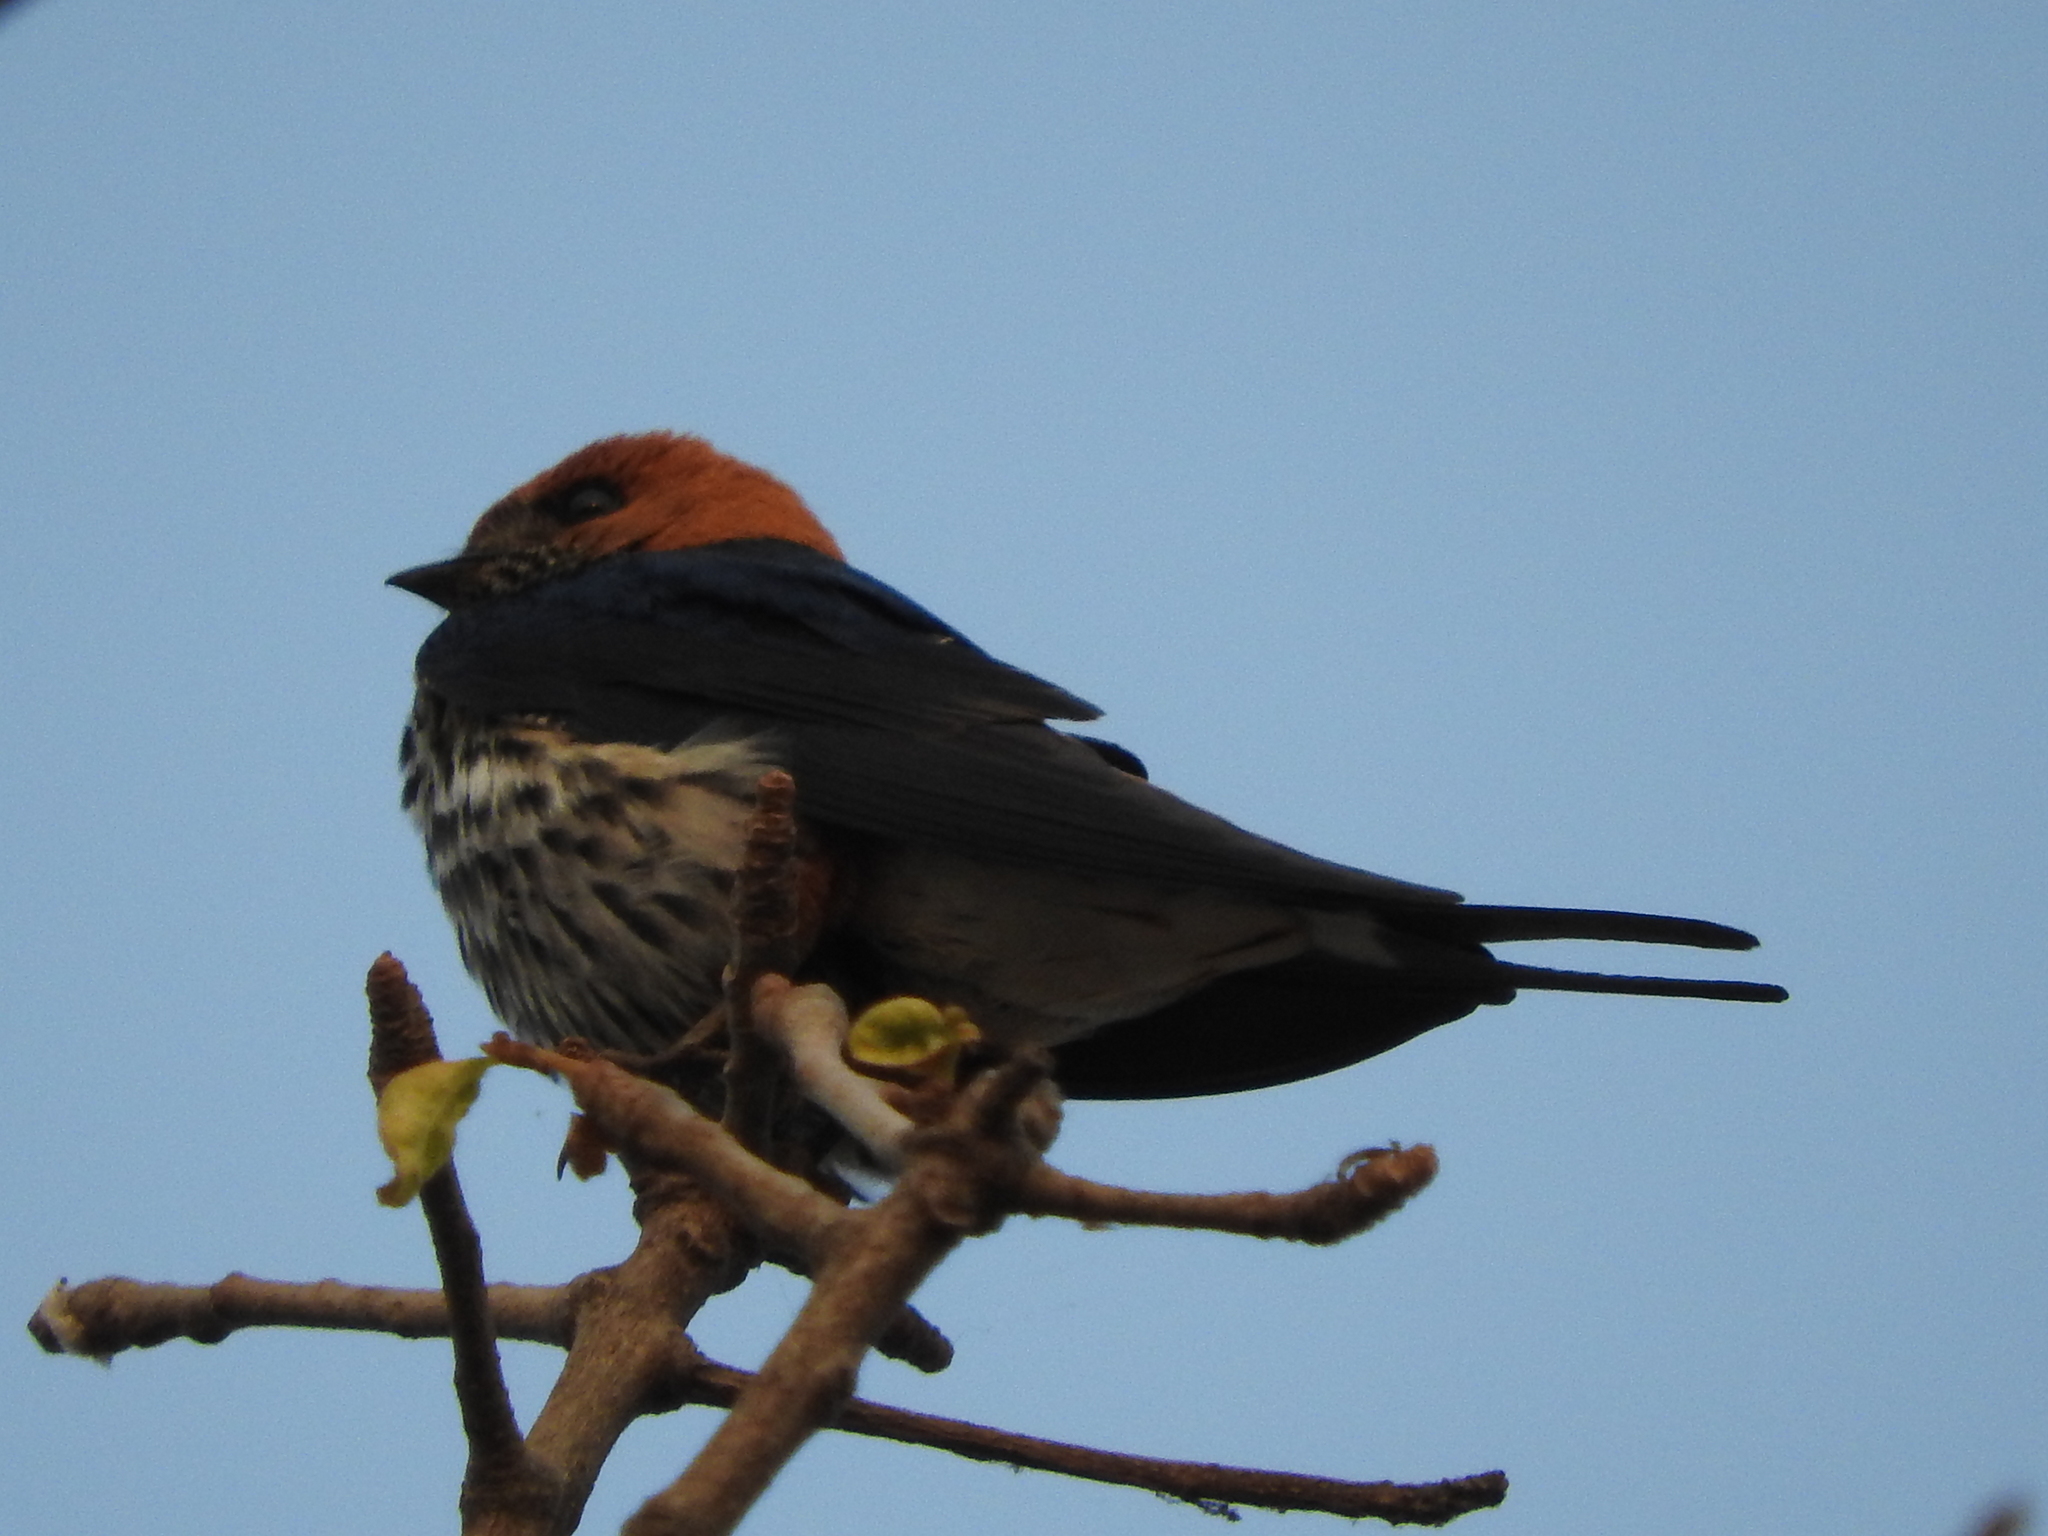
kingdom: Animalia
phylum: Chordata
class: Aves
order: Passeriformes
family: Hirundinidae
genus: Cecropis
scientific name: Cecropis abyssinica
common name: Lesser striped-swallow
